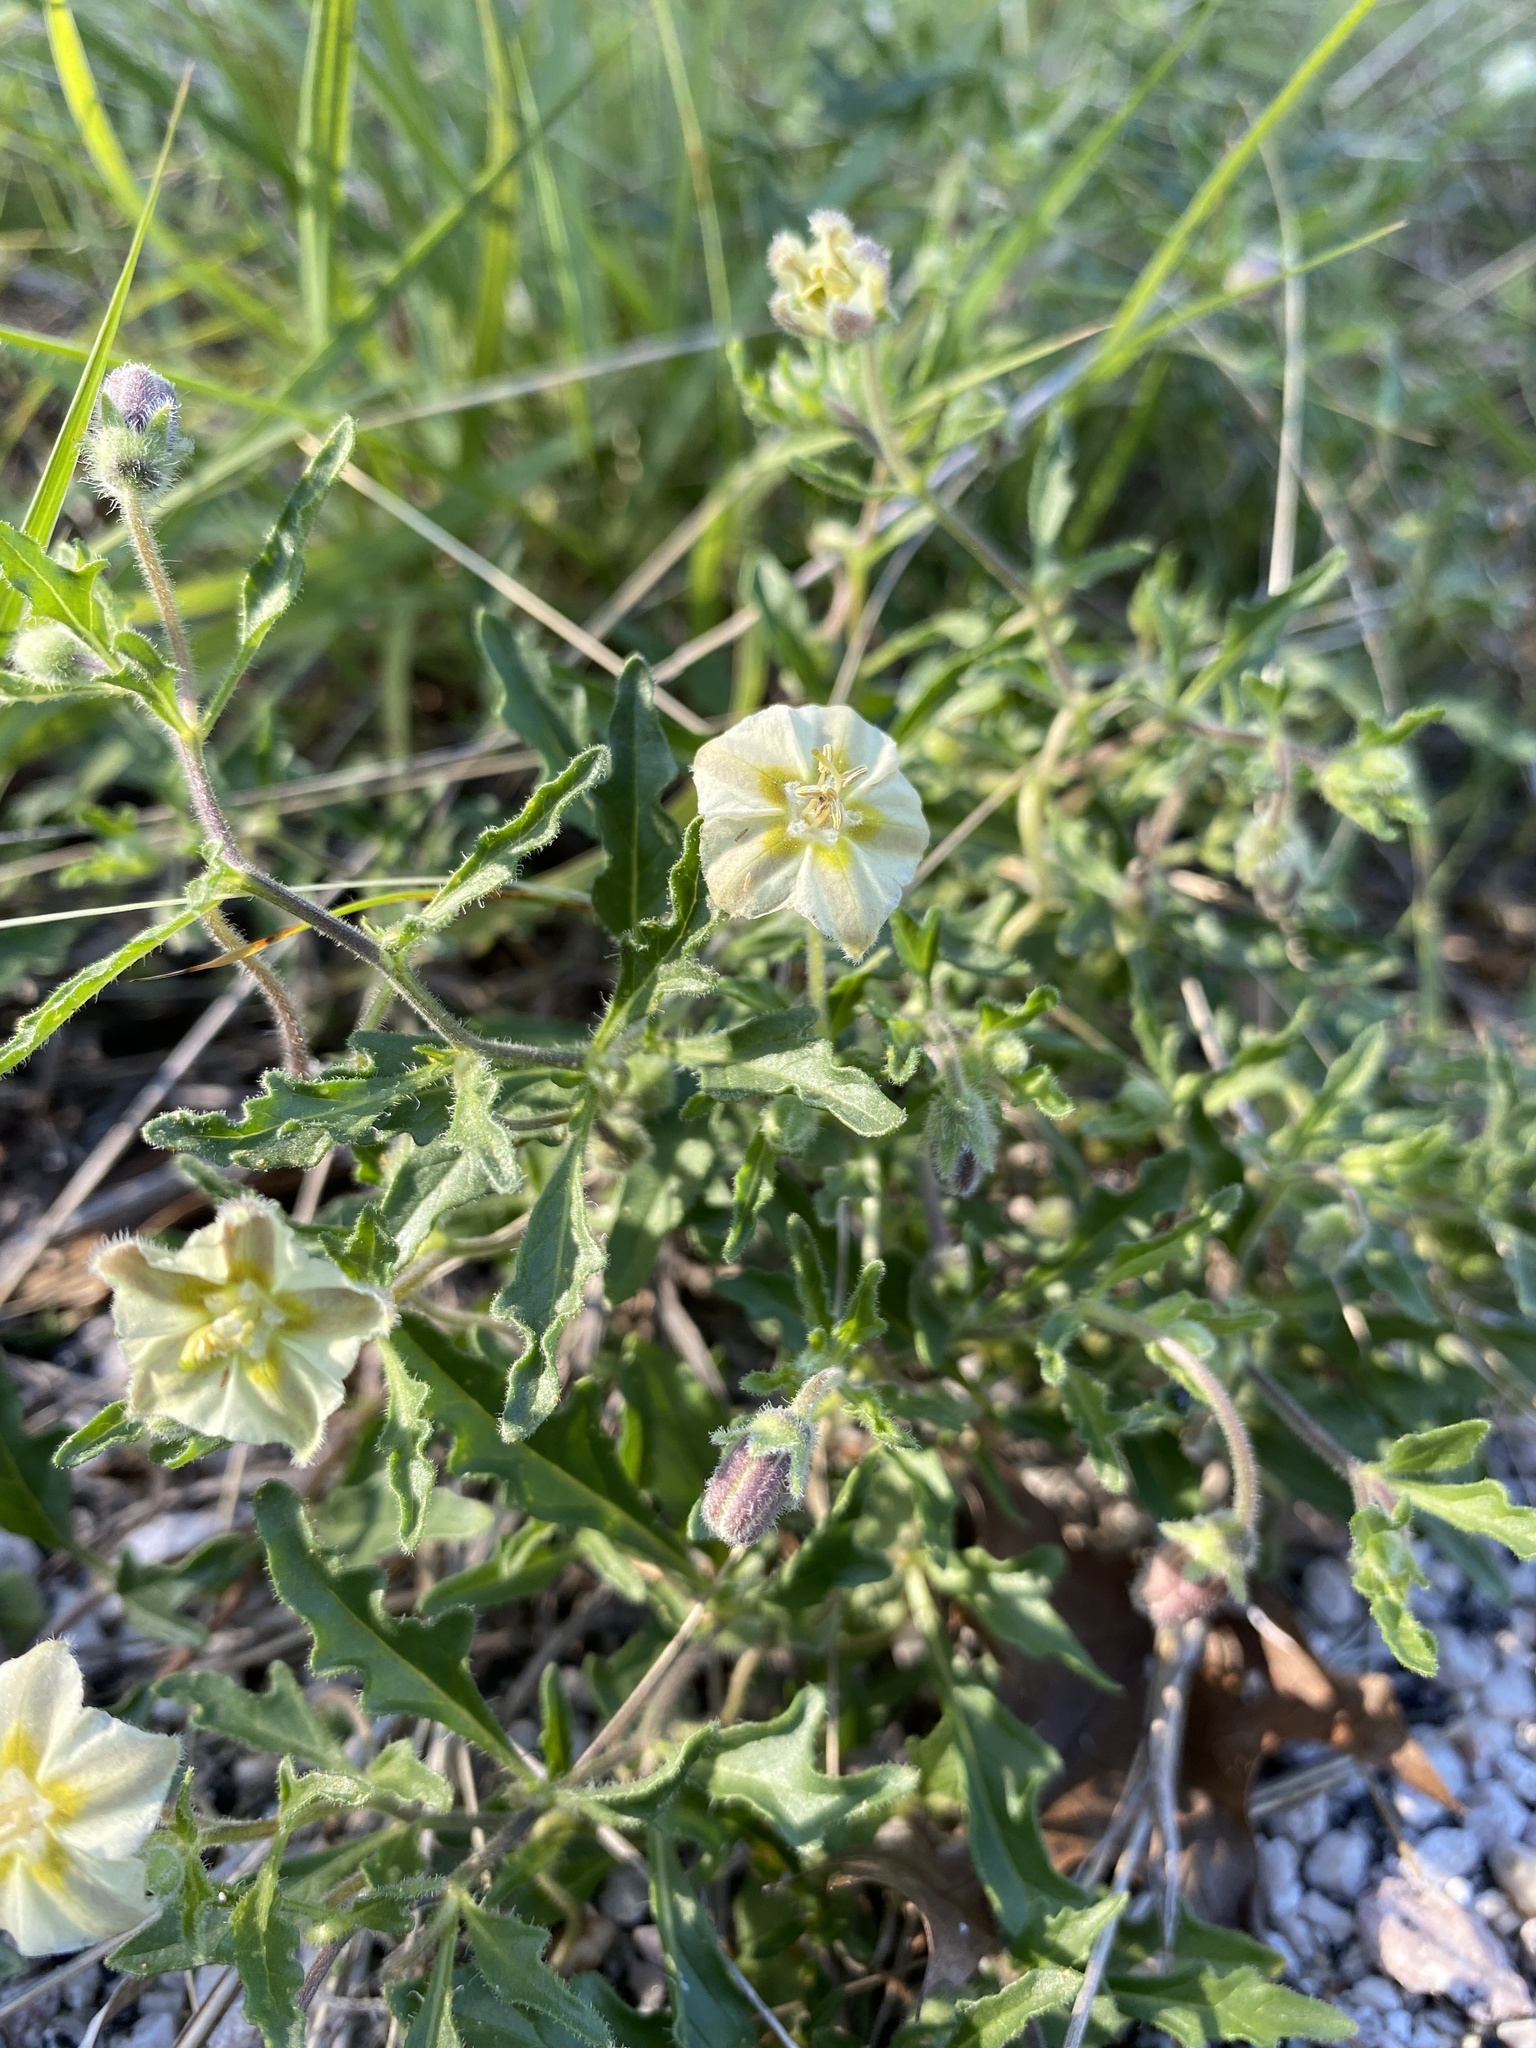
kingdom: Plantae
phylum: Tracheophyta
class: Magnoliopsida
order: Solanales
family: Solanaceae
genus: Chamaesaracha
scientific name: Chamaesaracha edwardsiana
